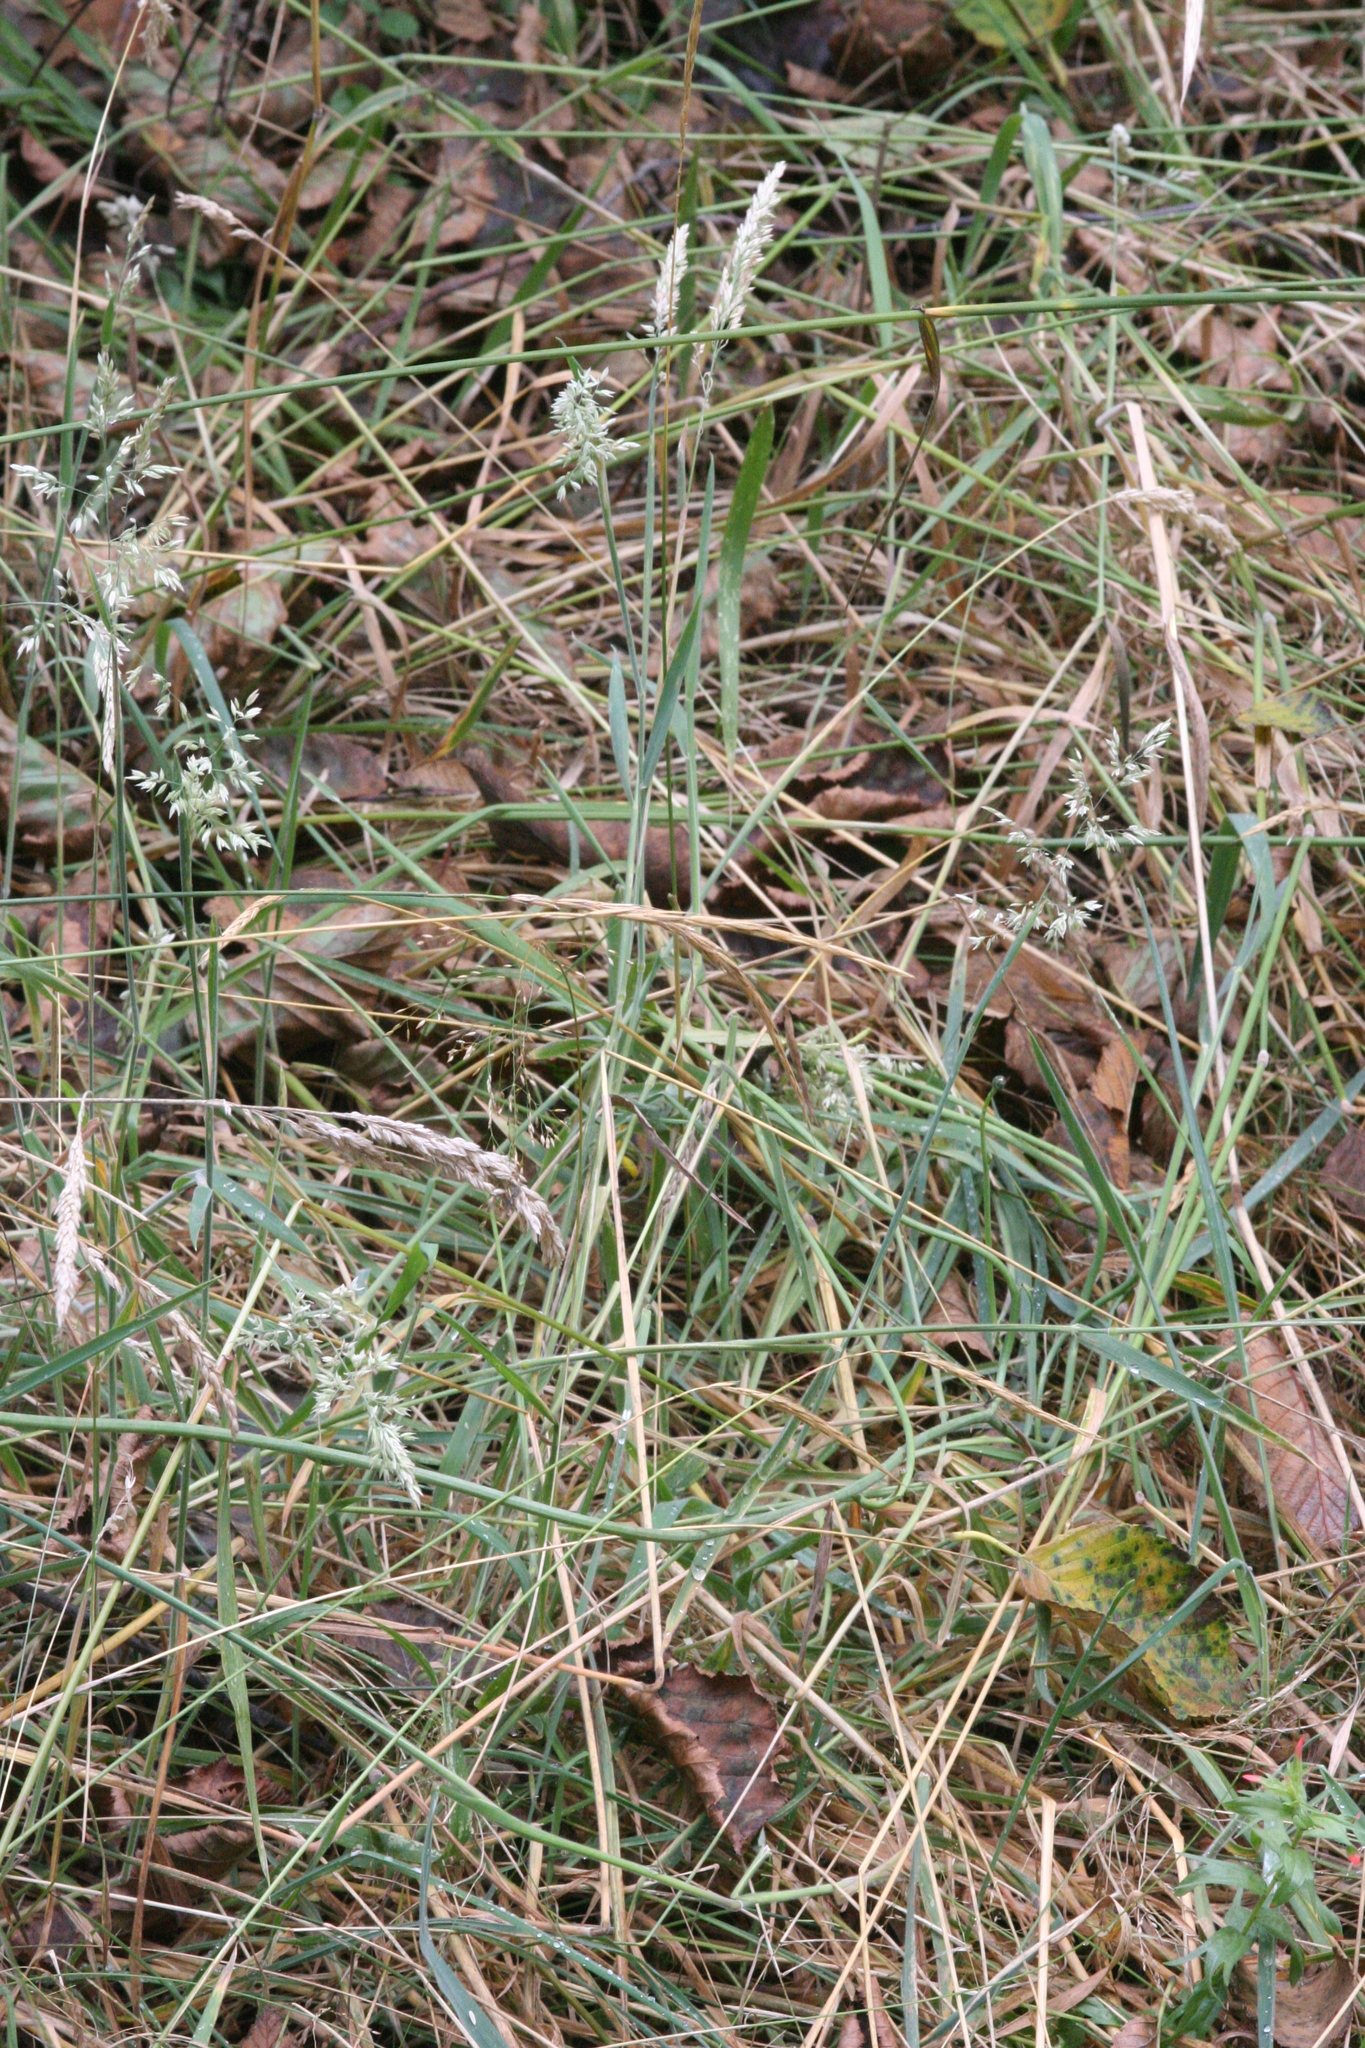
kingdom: Plantae
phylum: Tracheophyta
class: Liliopsida
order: Poales
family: Poaceae
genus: Holcus
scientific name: Holcus lanatus
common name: Yorkshire-fog
